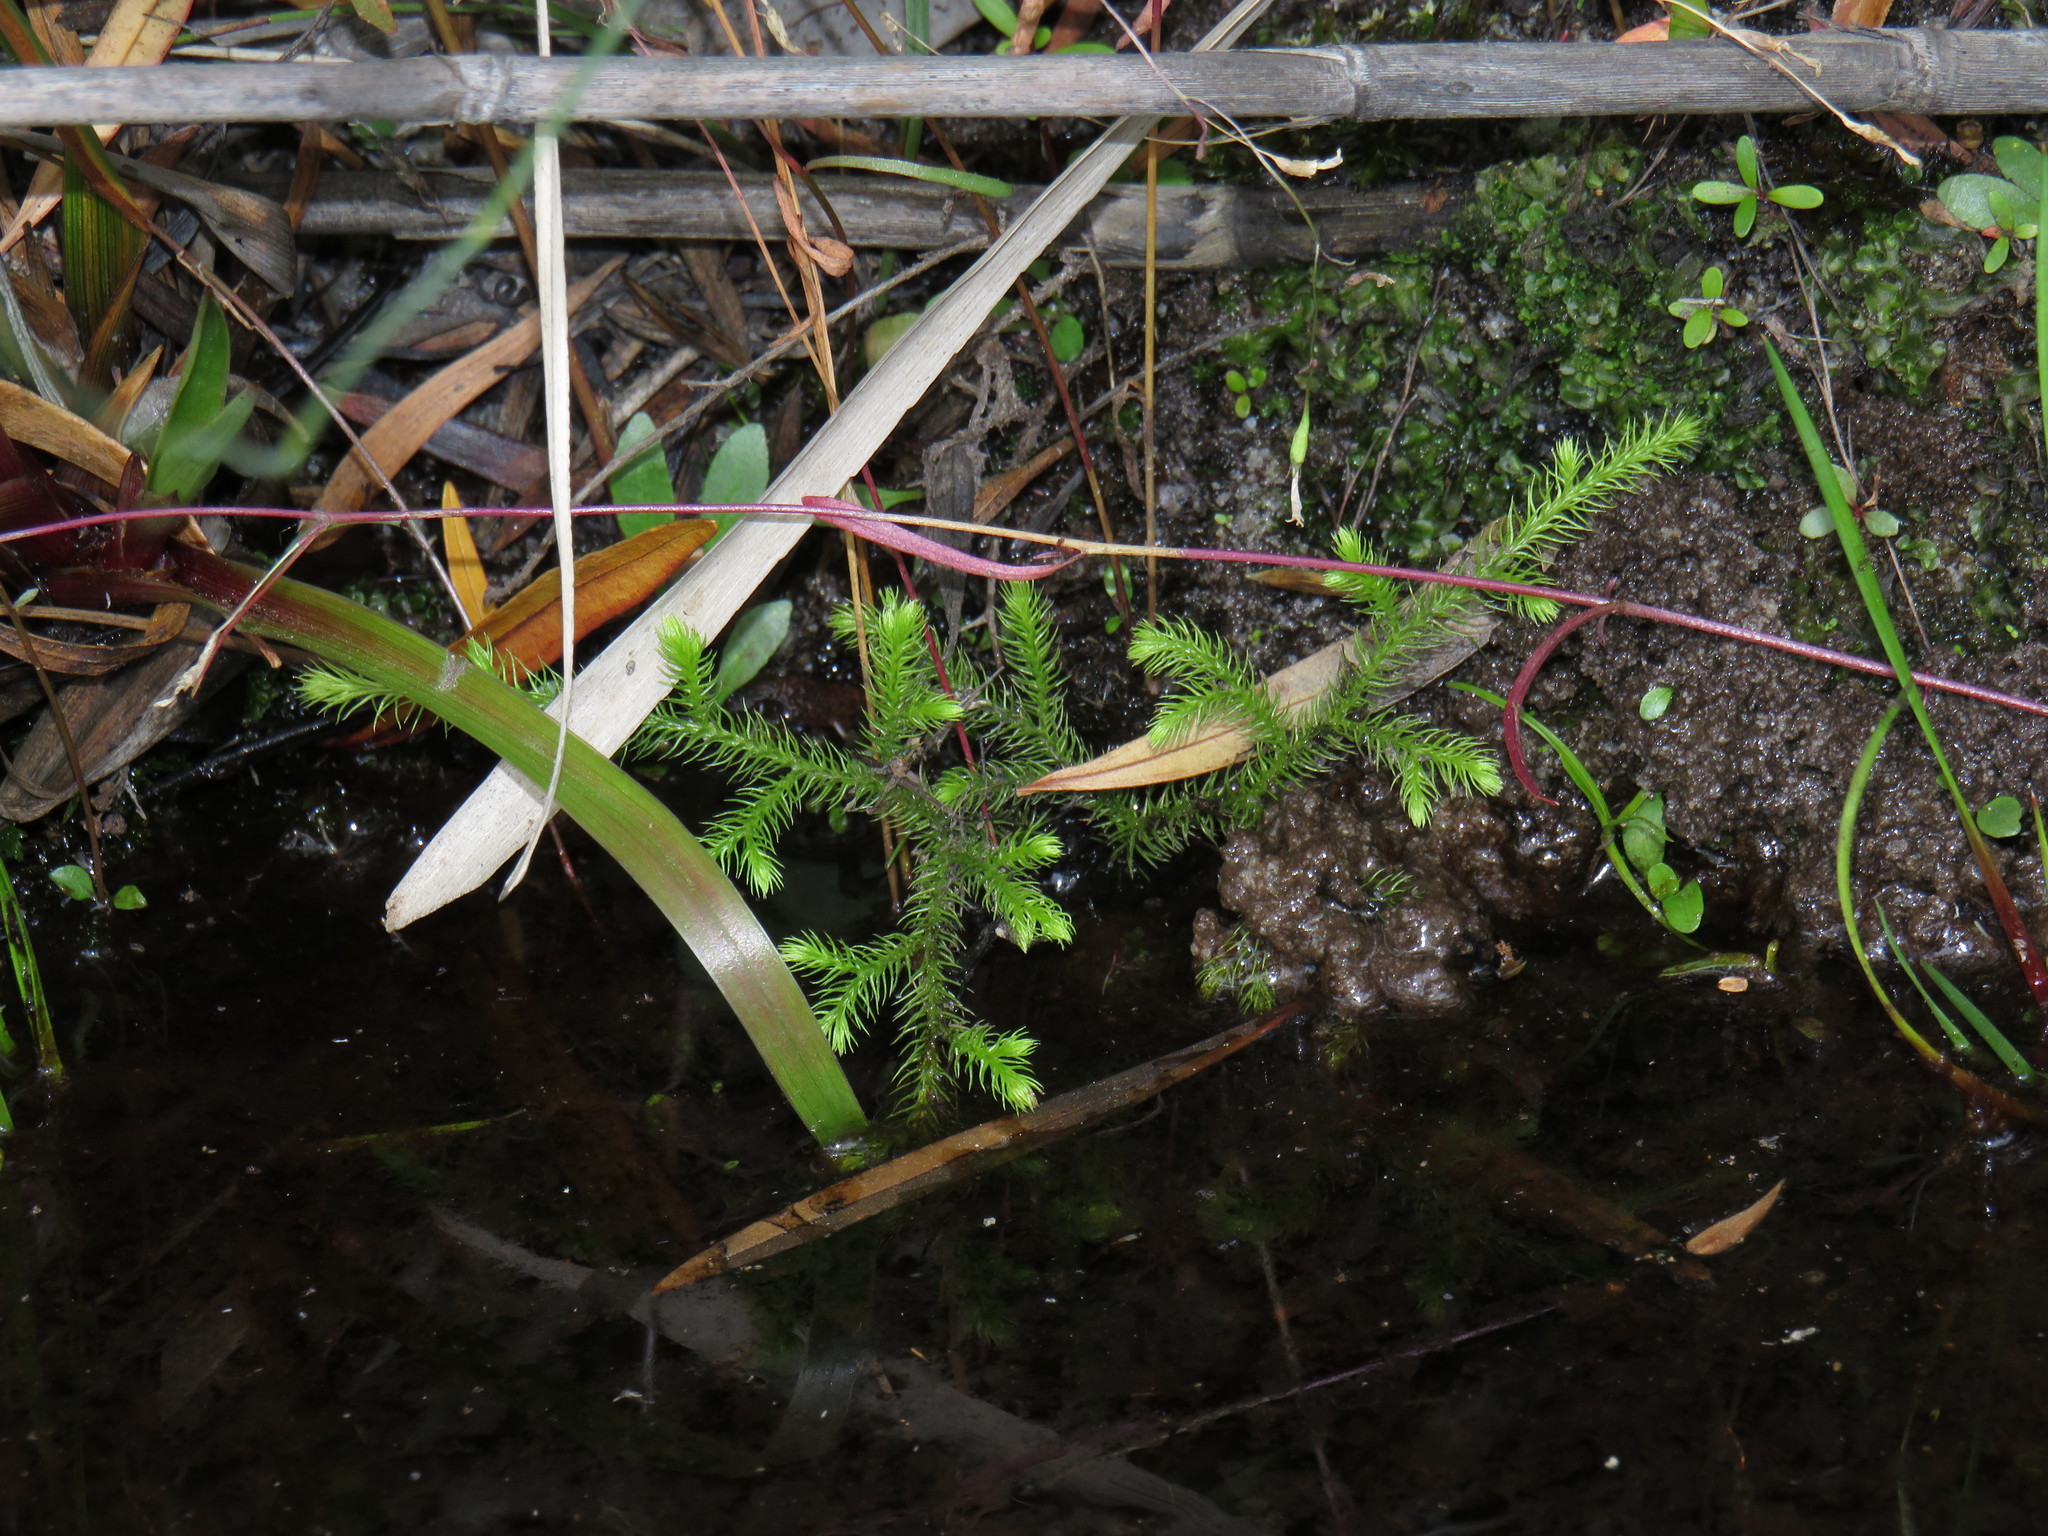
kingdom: Plantae
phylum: Tracheophyta
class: Lycopodiopsida
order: Lycopodiales
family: Lycopodiaceae
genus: Palhinhaea
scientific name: Palhinhaea cernua
